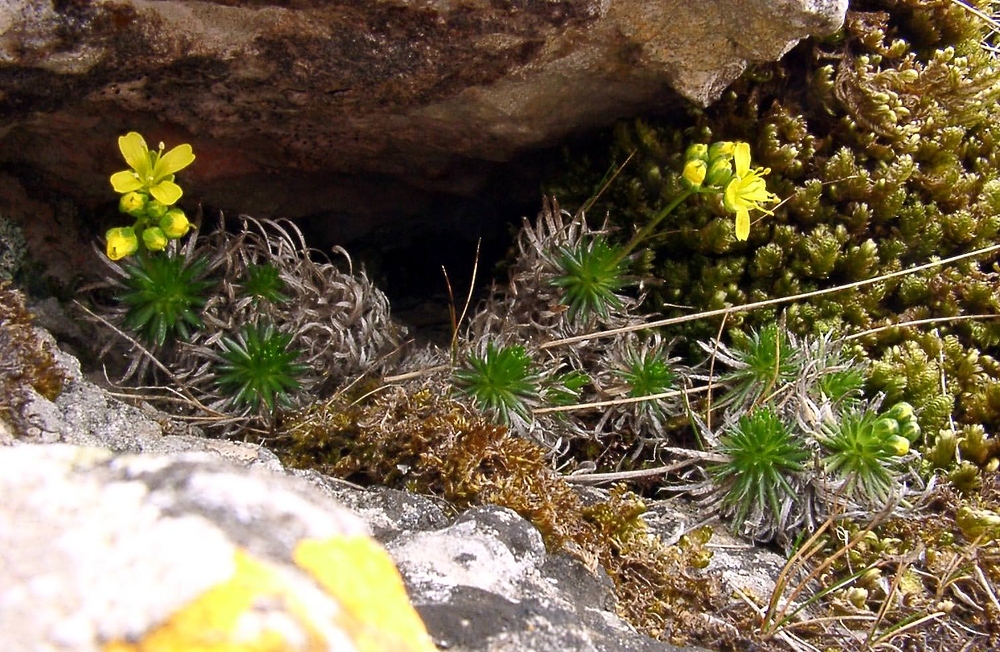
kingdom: Plantae
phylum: Tracheophyta
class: Magnoliopsida
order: Brassicales
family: Brassicaceae
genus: Draba
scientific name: Draba aizoides
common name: Yellow whitlowgrass
